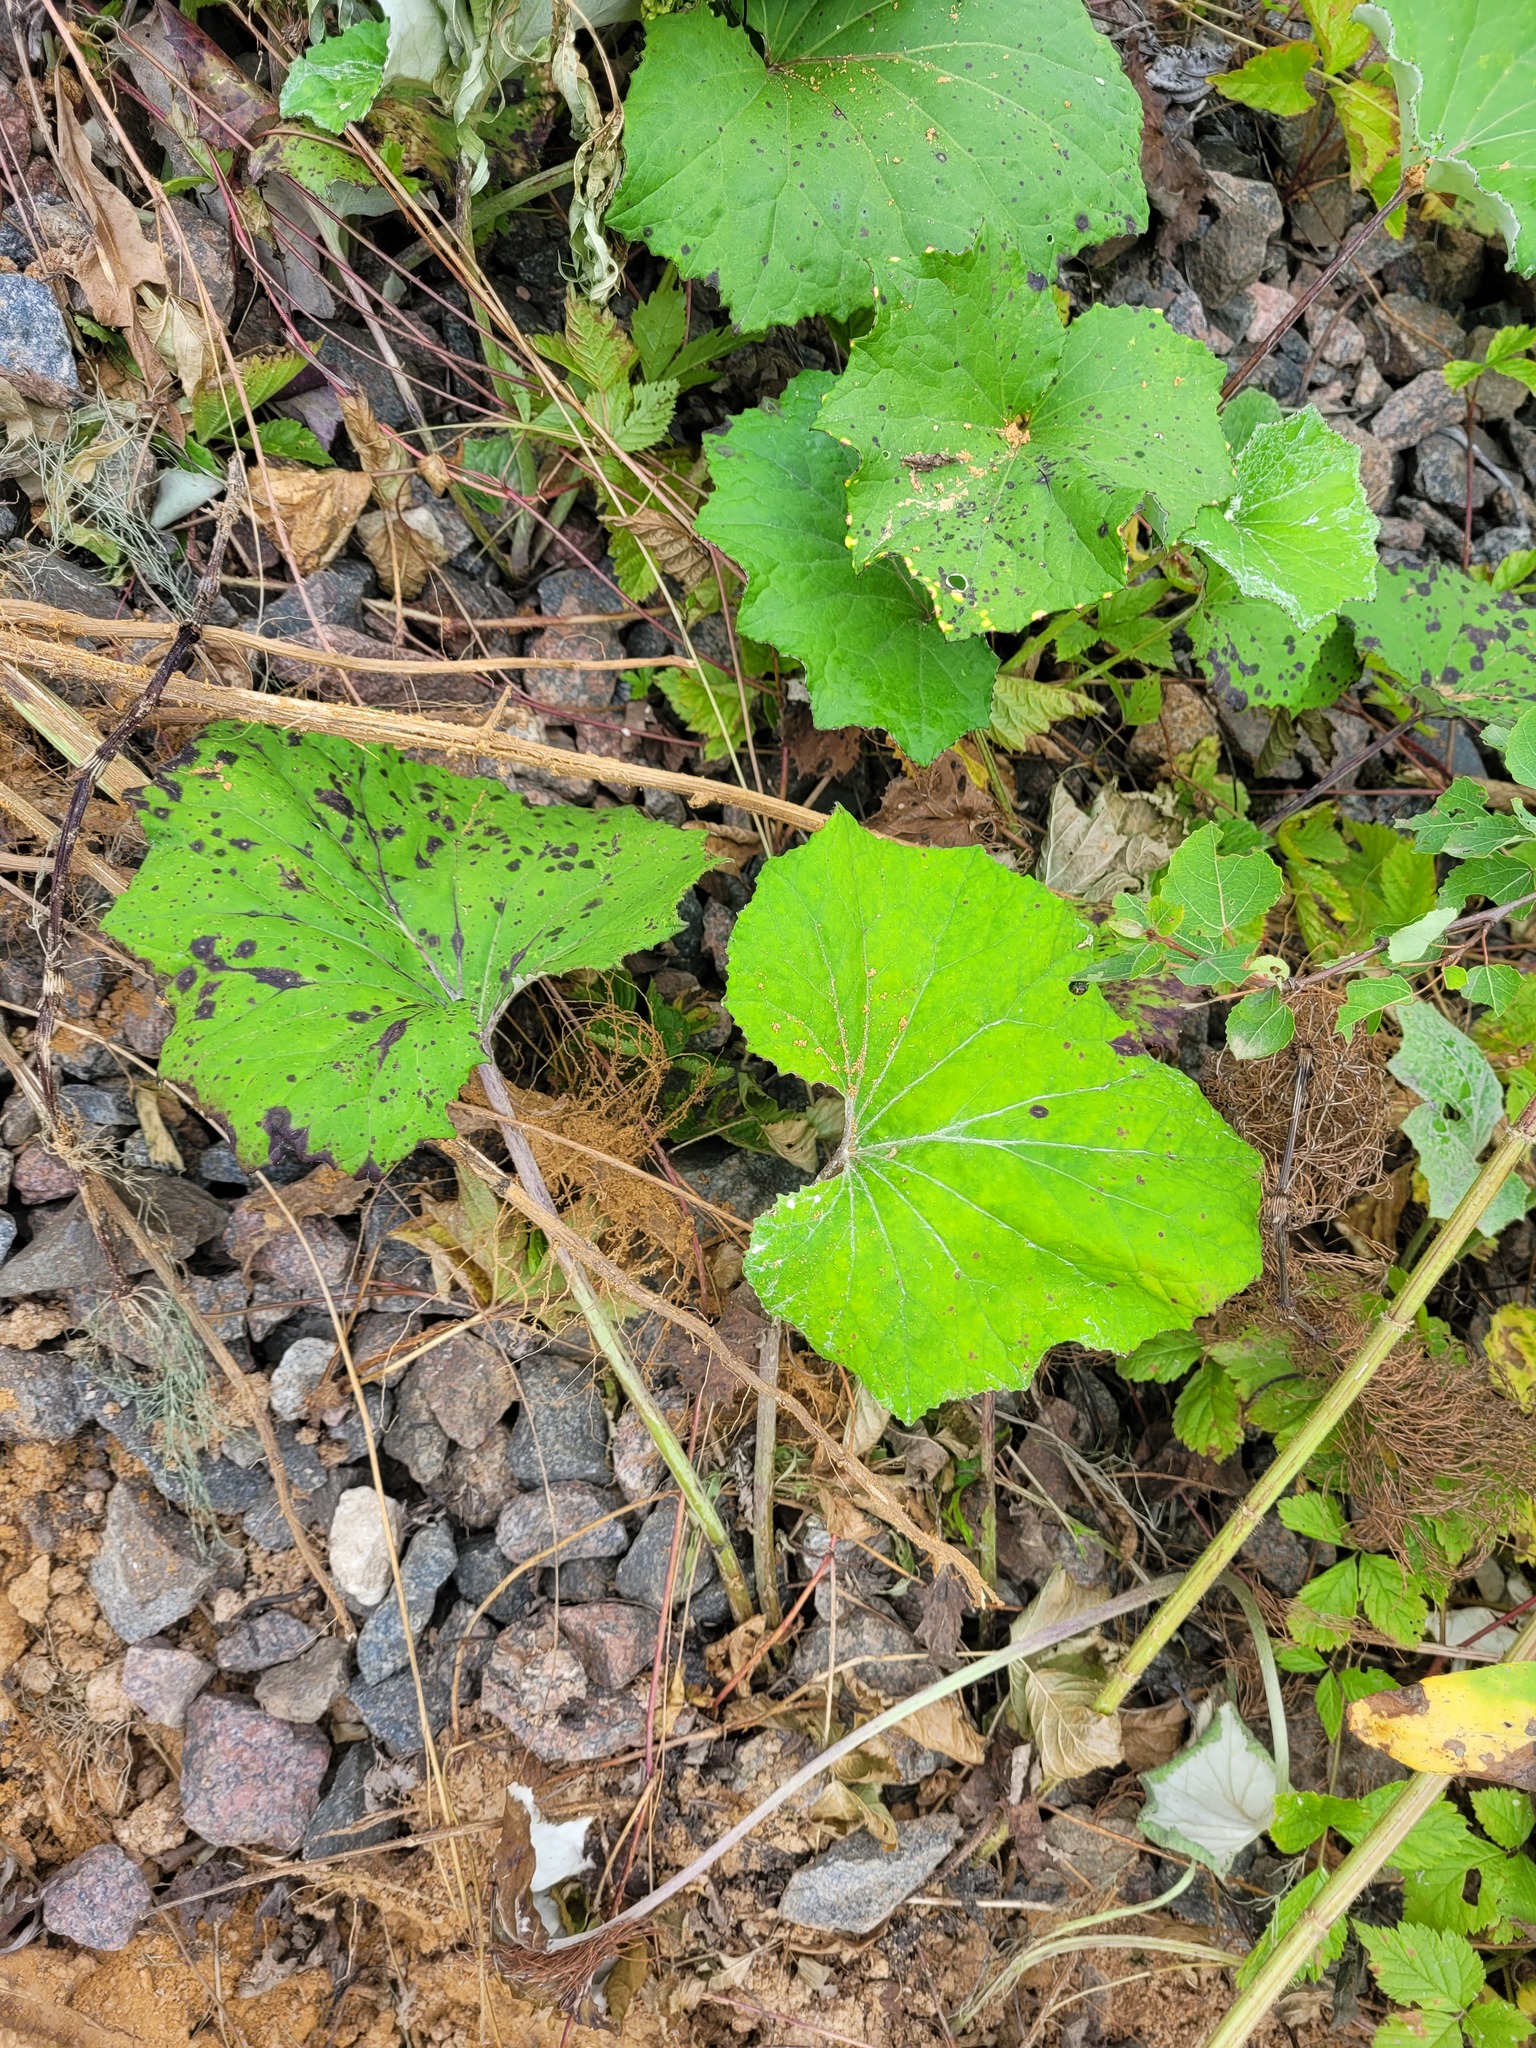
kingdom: Plantae
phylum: Tracheophyta
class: Magnoliopsida
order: Asterales
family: Asteraceae
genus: Tussilago
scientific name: Tussilago farfara
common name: Coltsfoot
